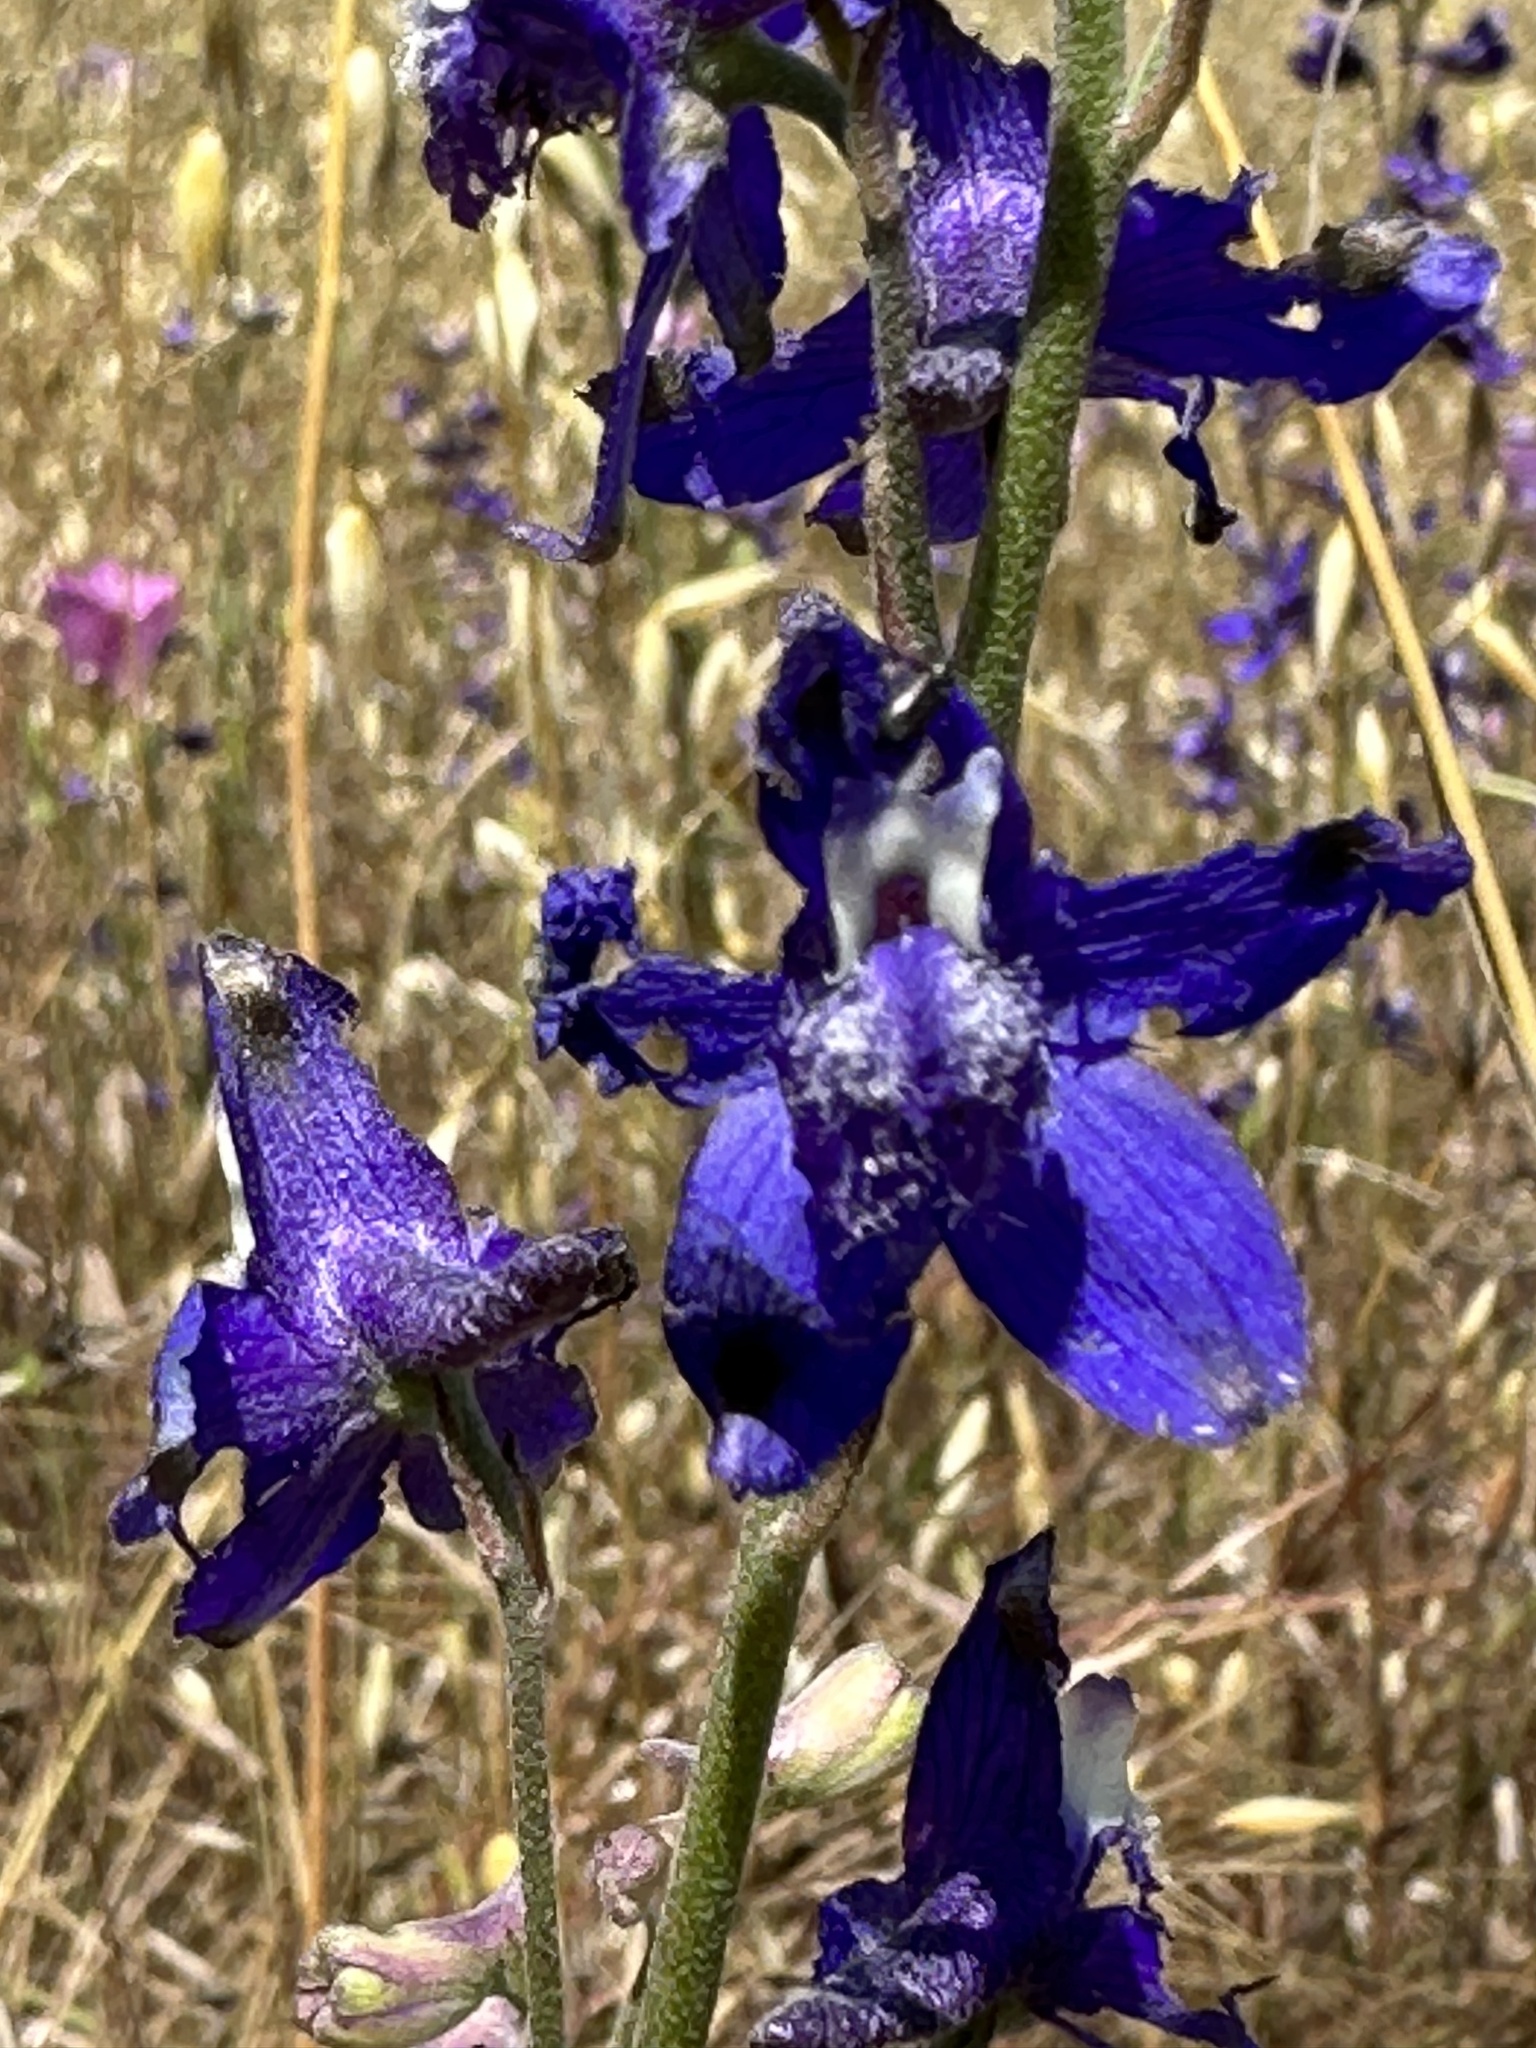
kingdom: Plantae
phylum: Tracheophyta
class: Magnoliopsida
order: Ranunculales
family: Ranunculaceae
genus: Delphinium
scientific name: Delphinium parryi
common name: Parry's larkspur
